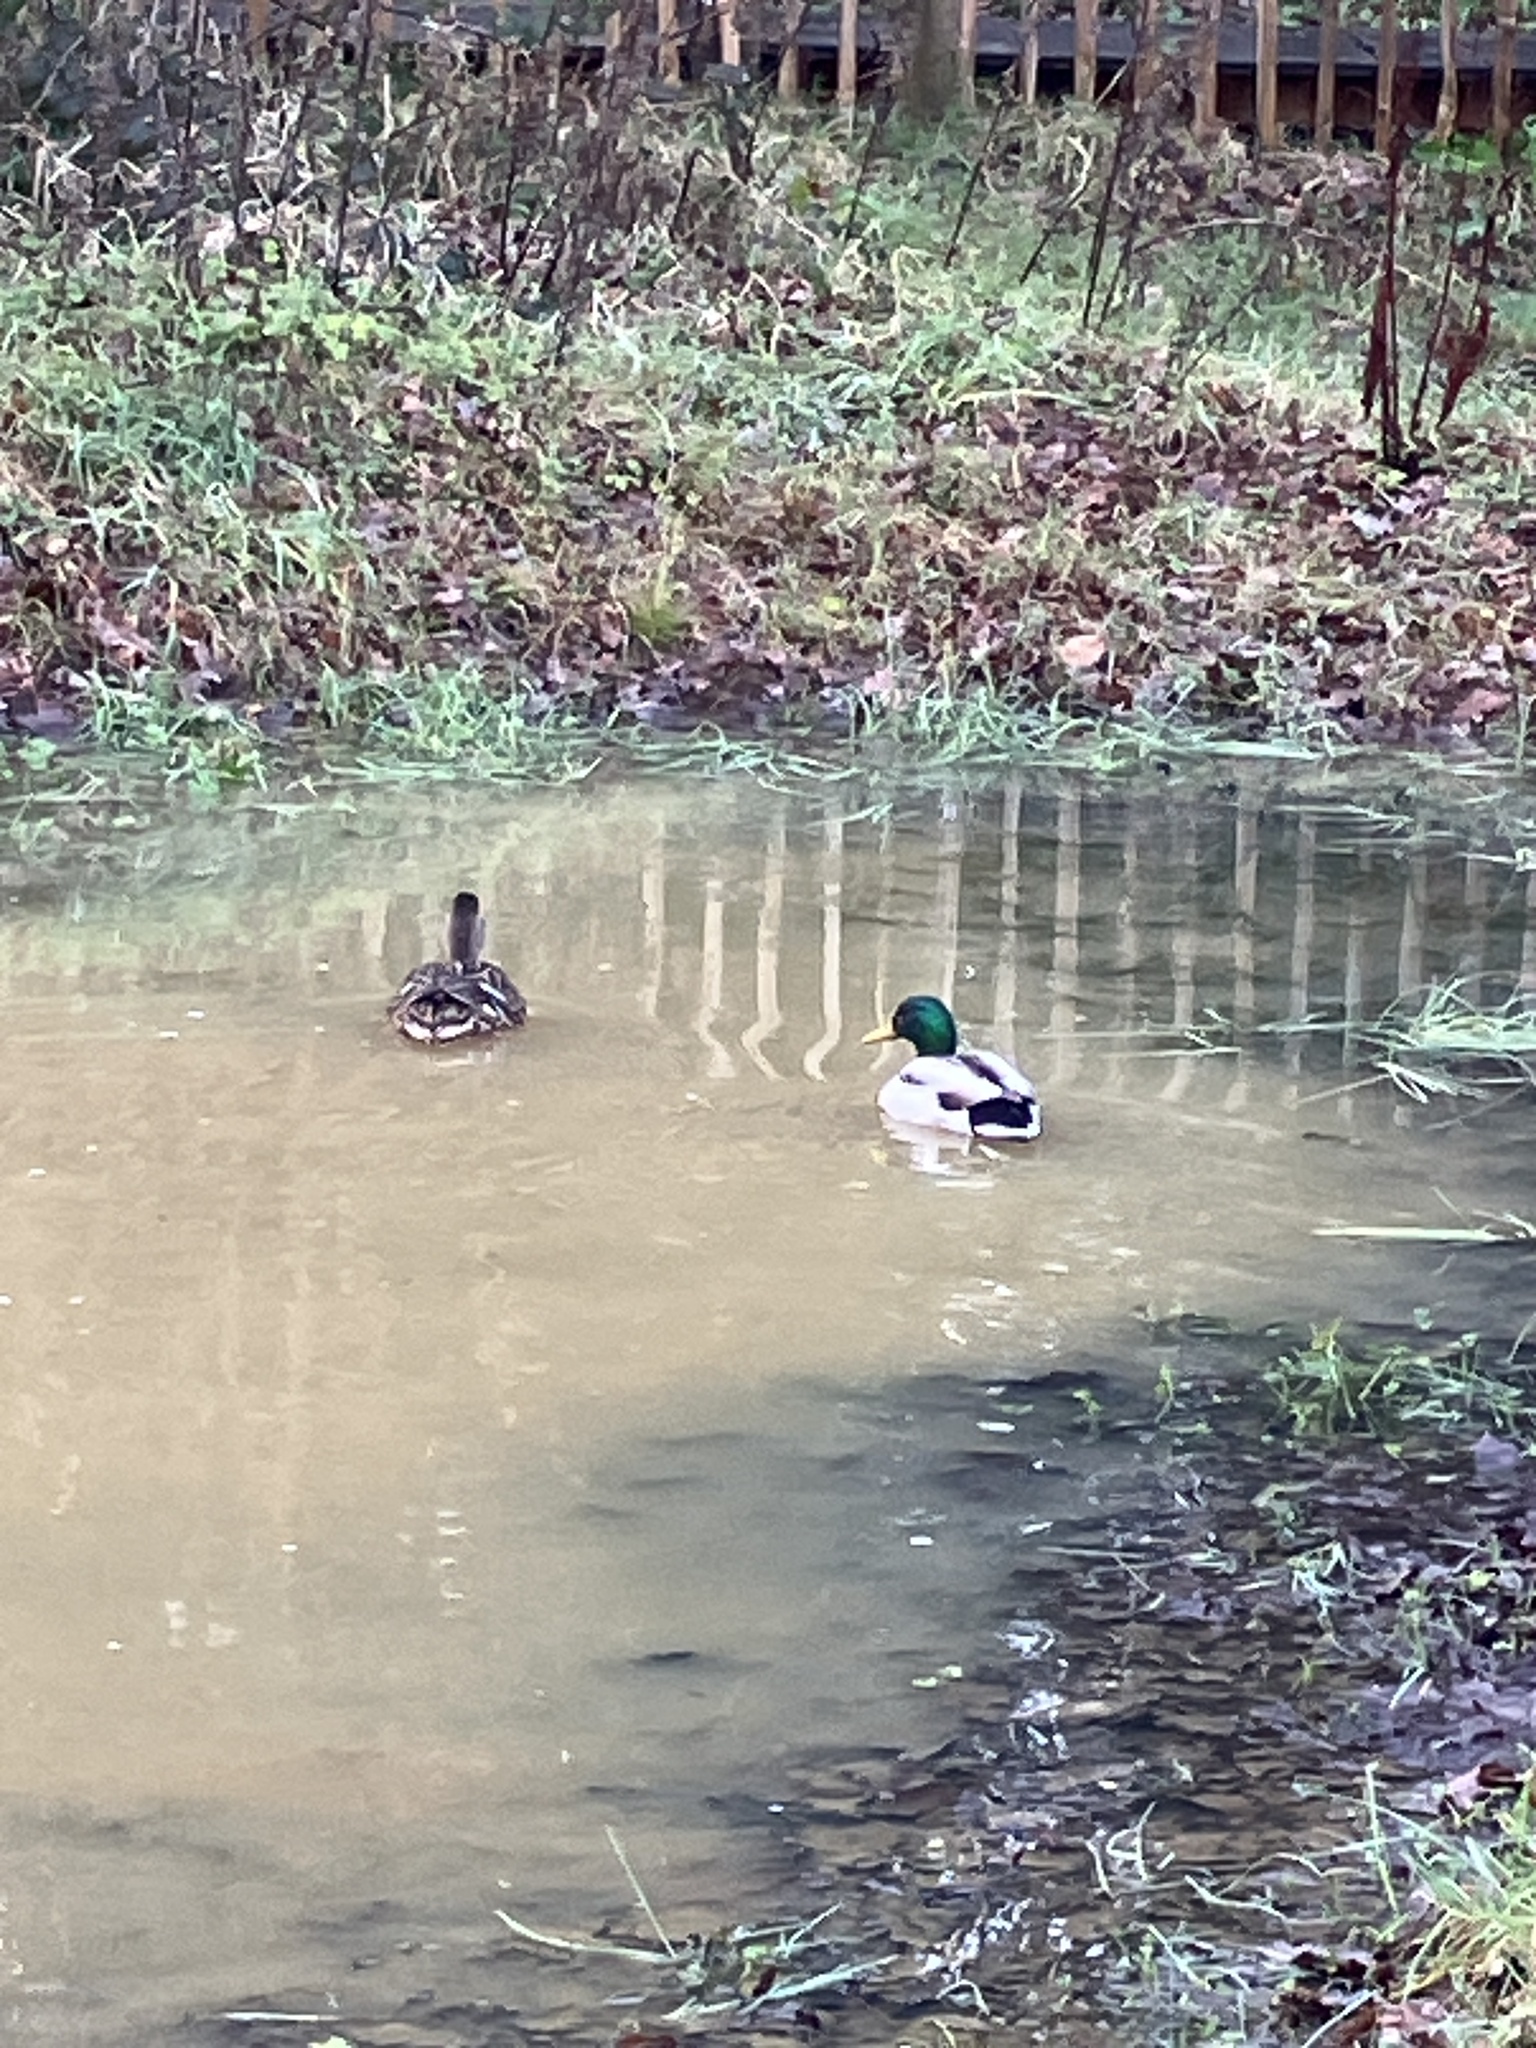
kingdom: Animalia
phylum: Chordata
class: Aves
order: Anseriformes
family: Anatidae
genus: Anas
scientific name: Anas platyrhynchos
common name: Mallard
